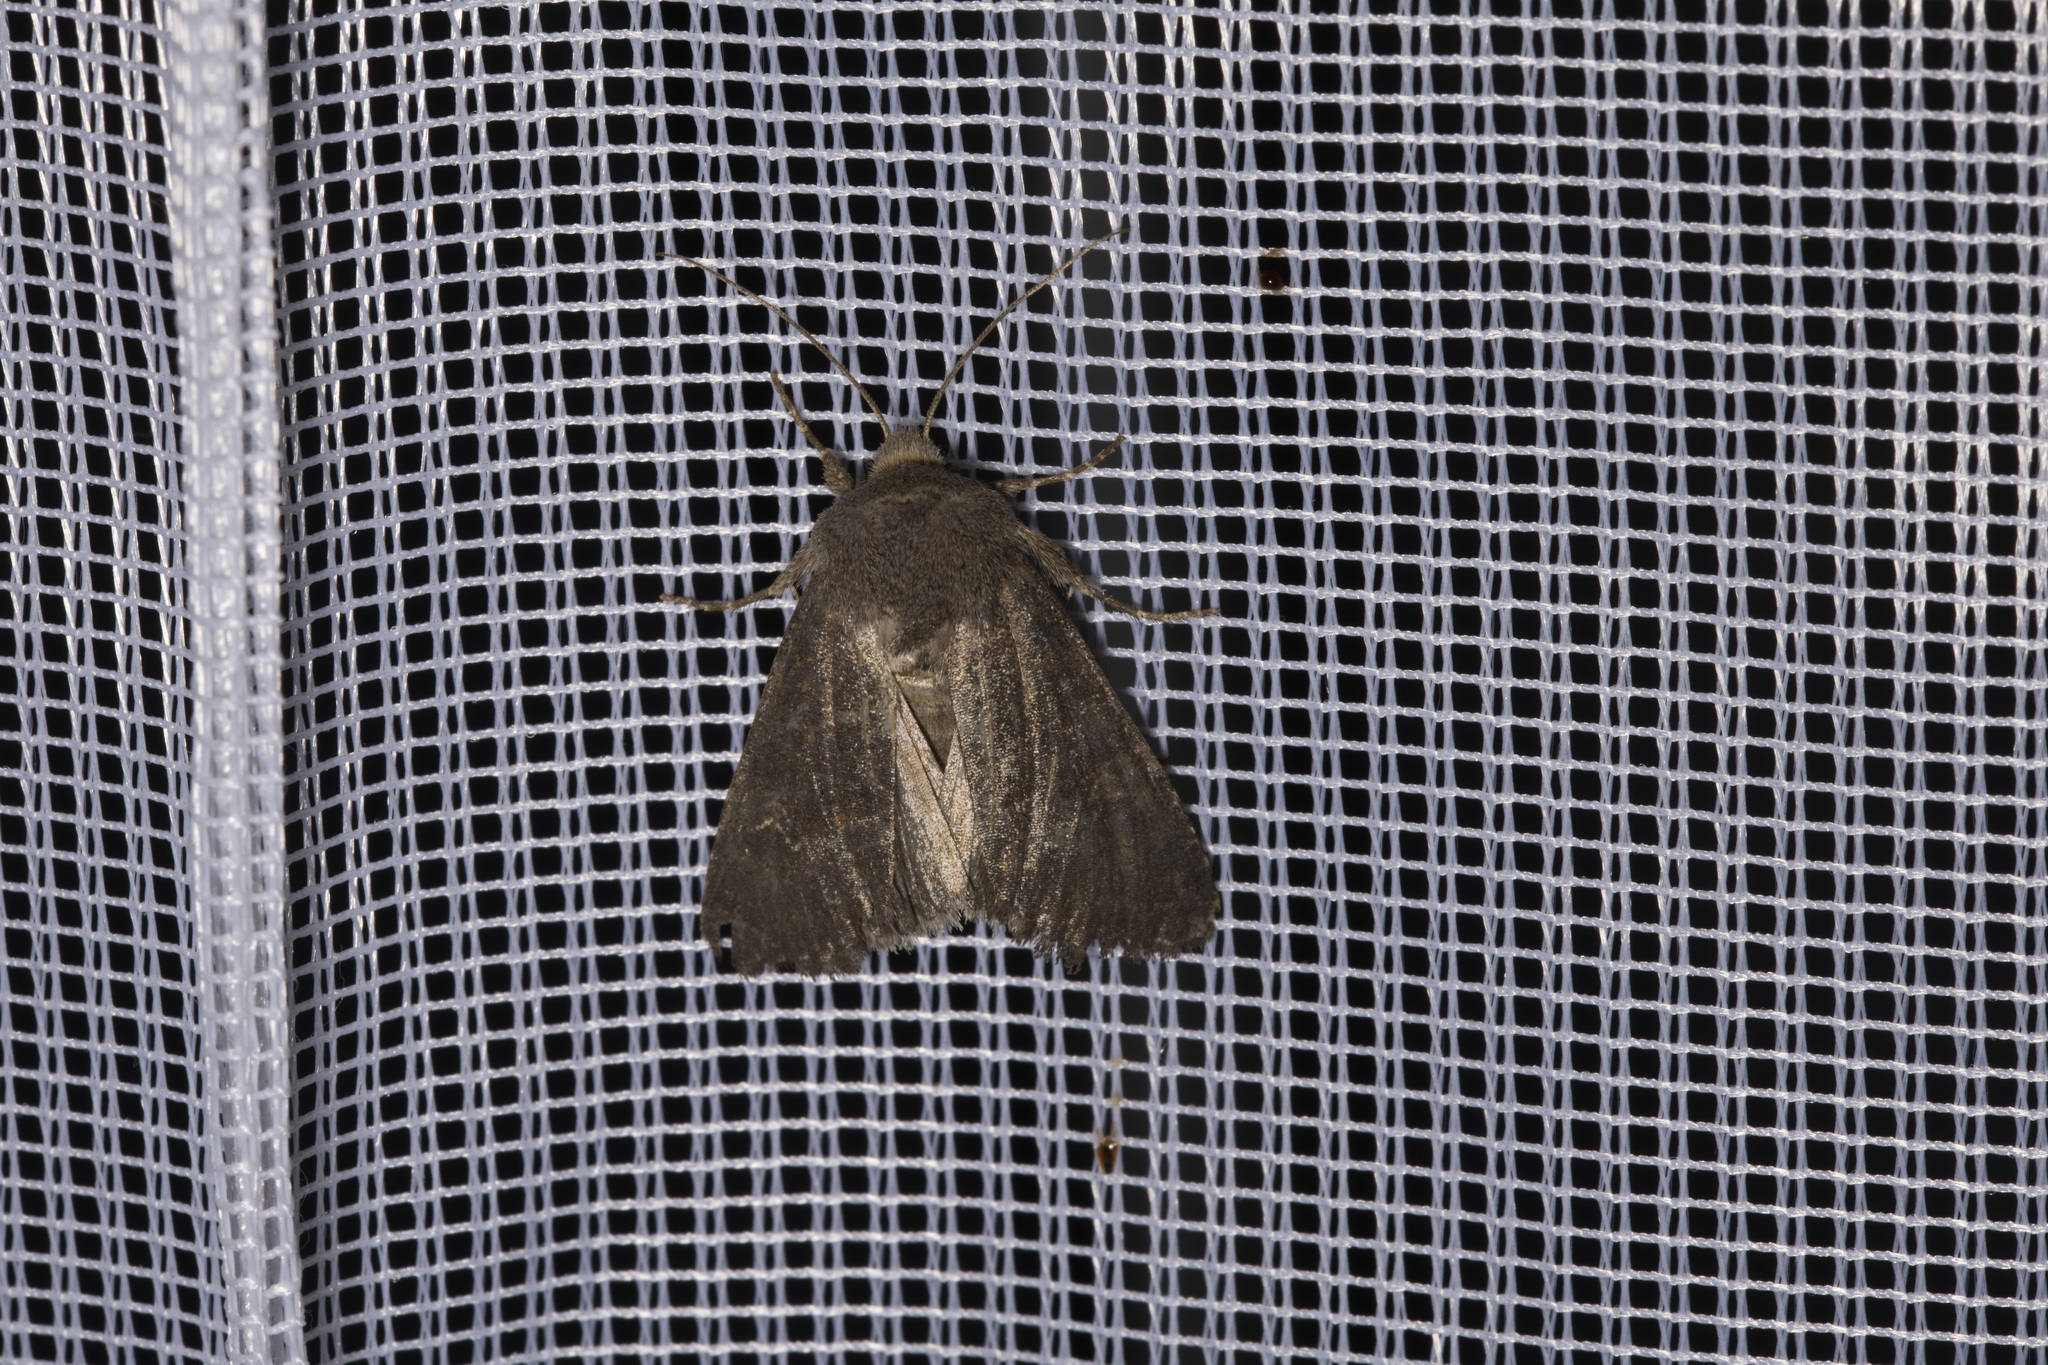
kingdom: Animalia
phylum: Arthropoda
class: Insecta
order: Lepidoptera
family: Noctuidae
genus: Aporophyla
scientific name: Aporophyla lueneburgensis
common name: Northern deep-brown dart
